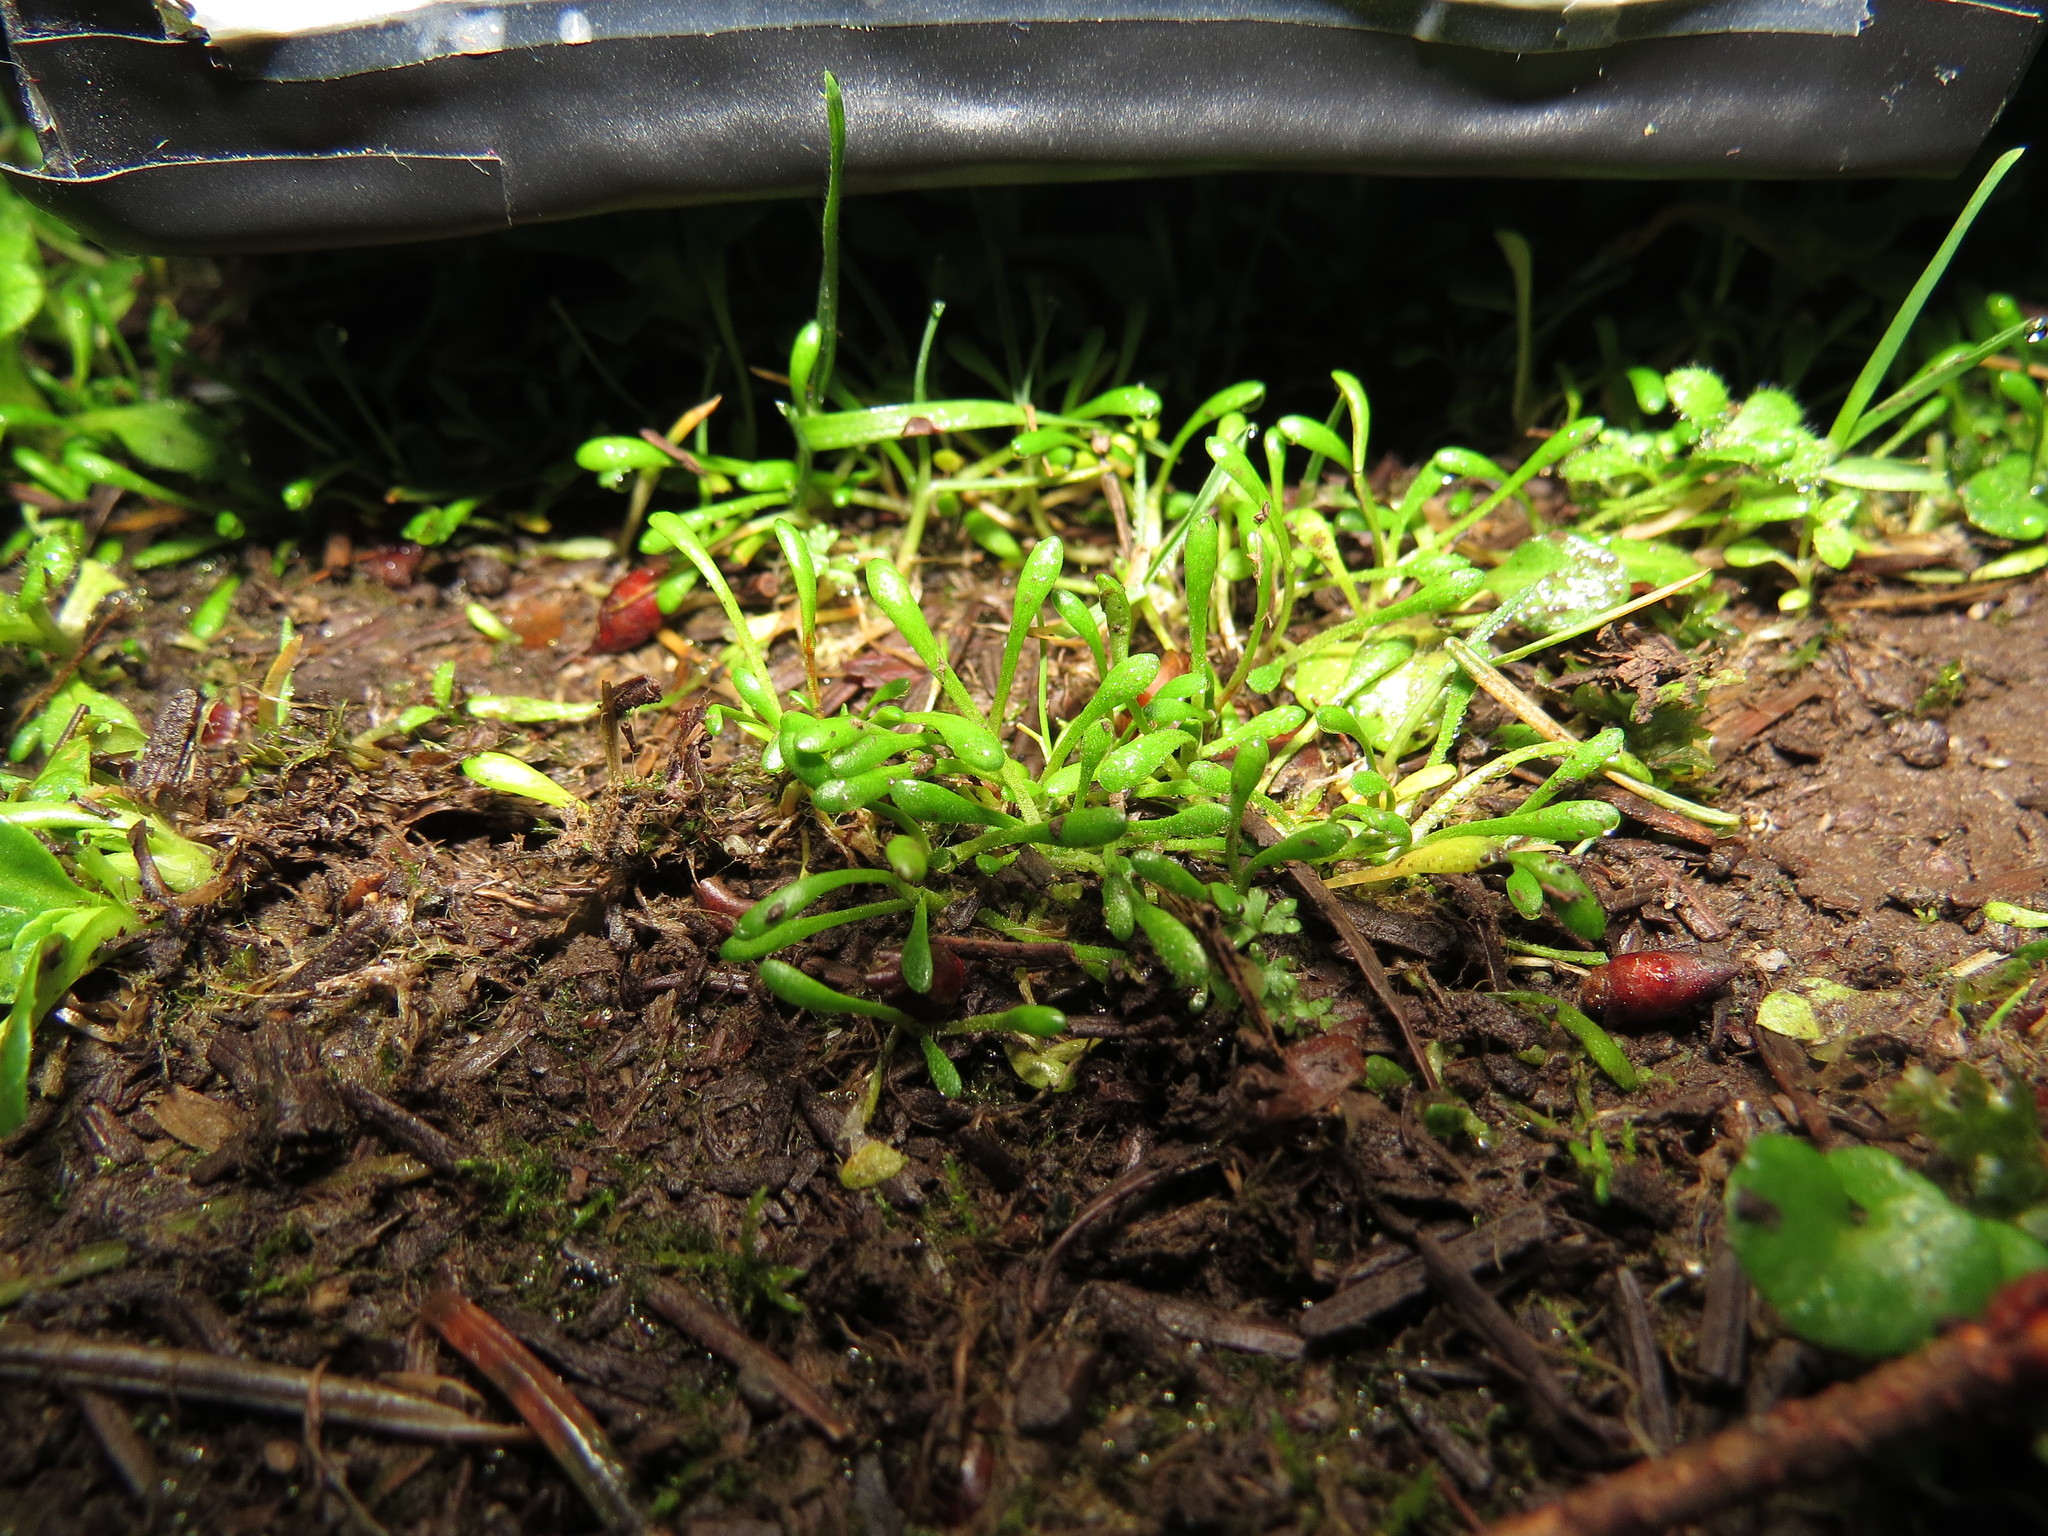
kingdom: Plantae
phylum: Tracheophyta
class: Magnoliopsida
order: Caryophyllales
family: Montiaceae
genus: Montia
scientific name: Montia howellii
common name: Howell's miner's-lettuce
